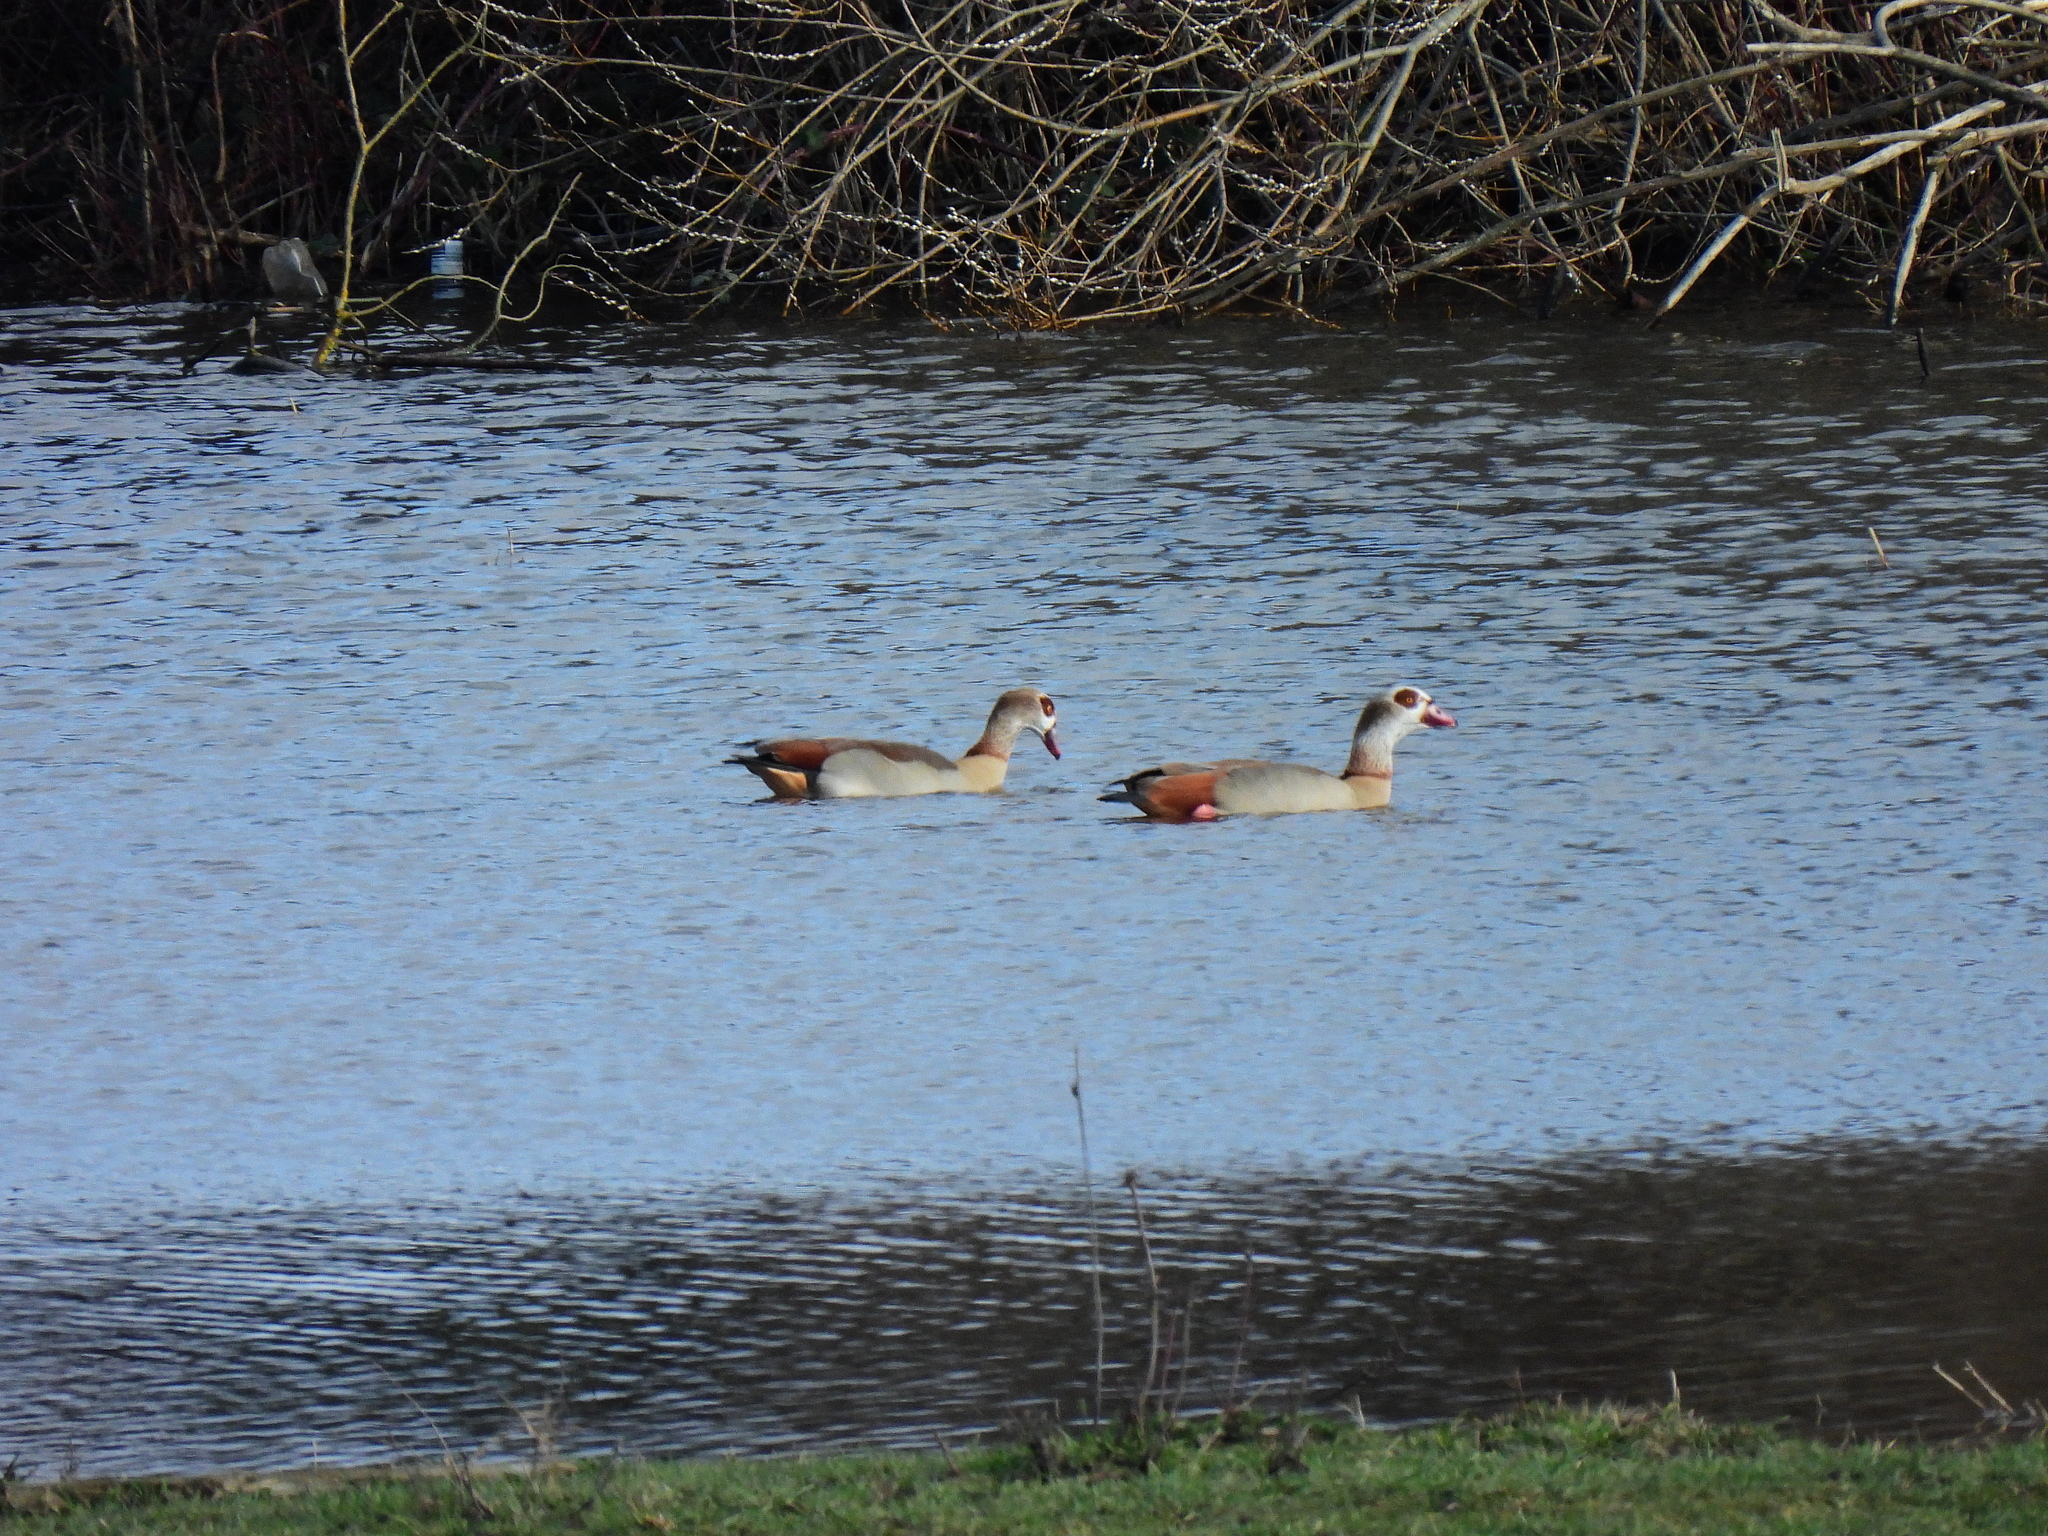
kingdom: Animalia
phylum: Chordata
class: Aves
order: Anseriformes
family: Anatidae
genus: Alopochen
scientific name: Alopochen aegyptiaca
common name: Egyptian goose
